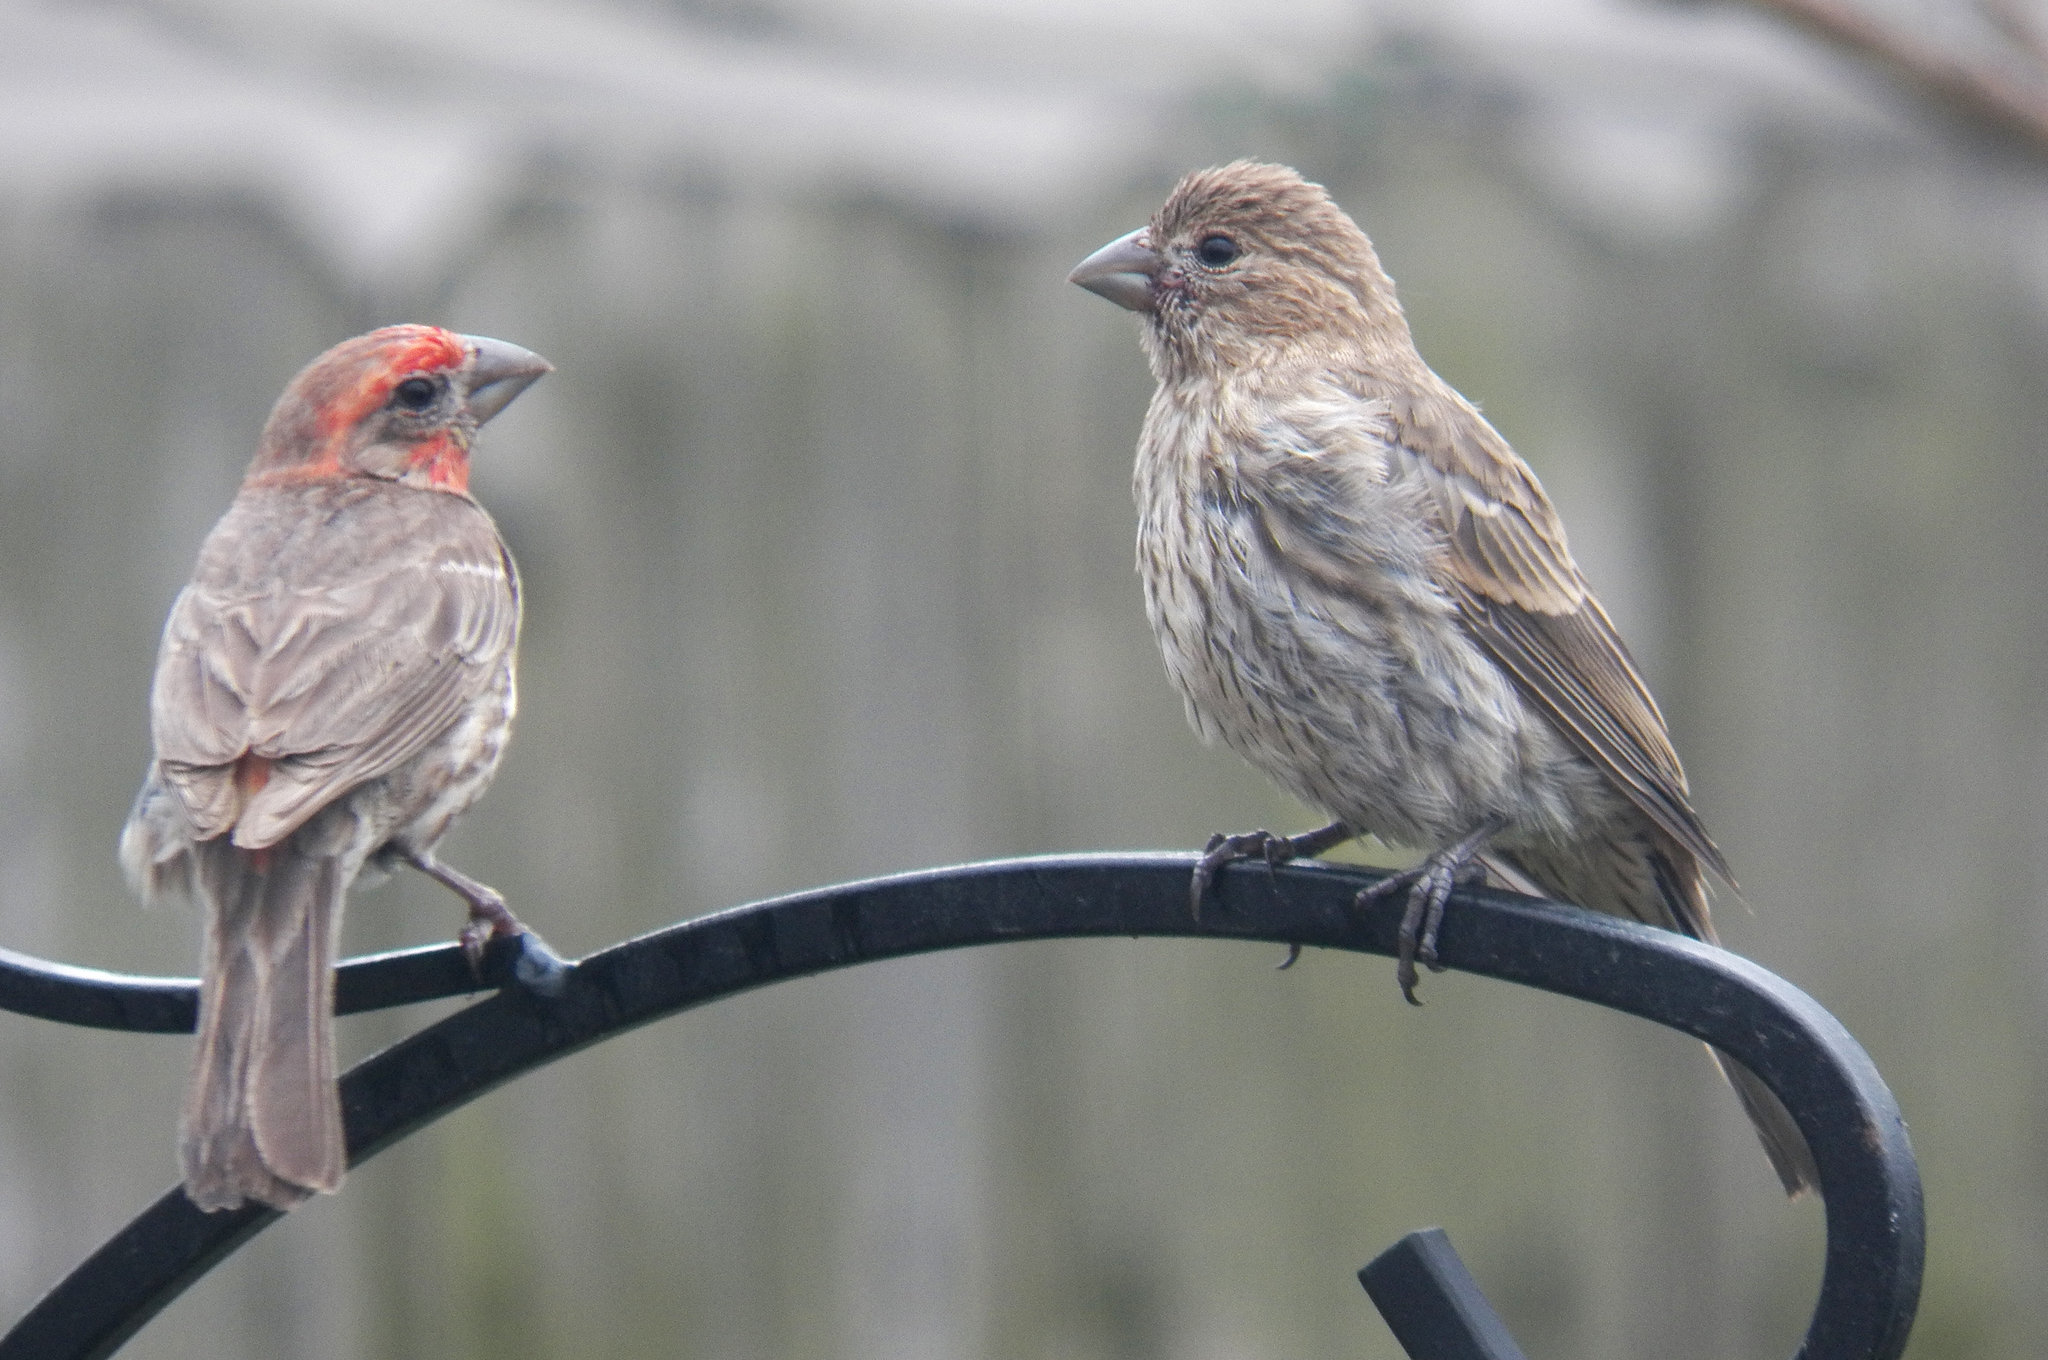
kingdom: Animalia
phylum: Chordata
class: Aves
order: Passeriformes
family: Fringillidae
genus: Haemorhous
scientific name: Haemorhous mexicanus
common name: House finch
